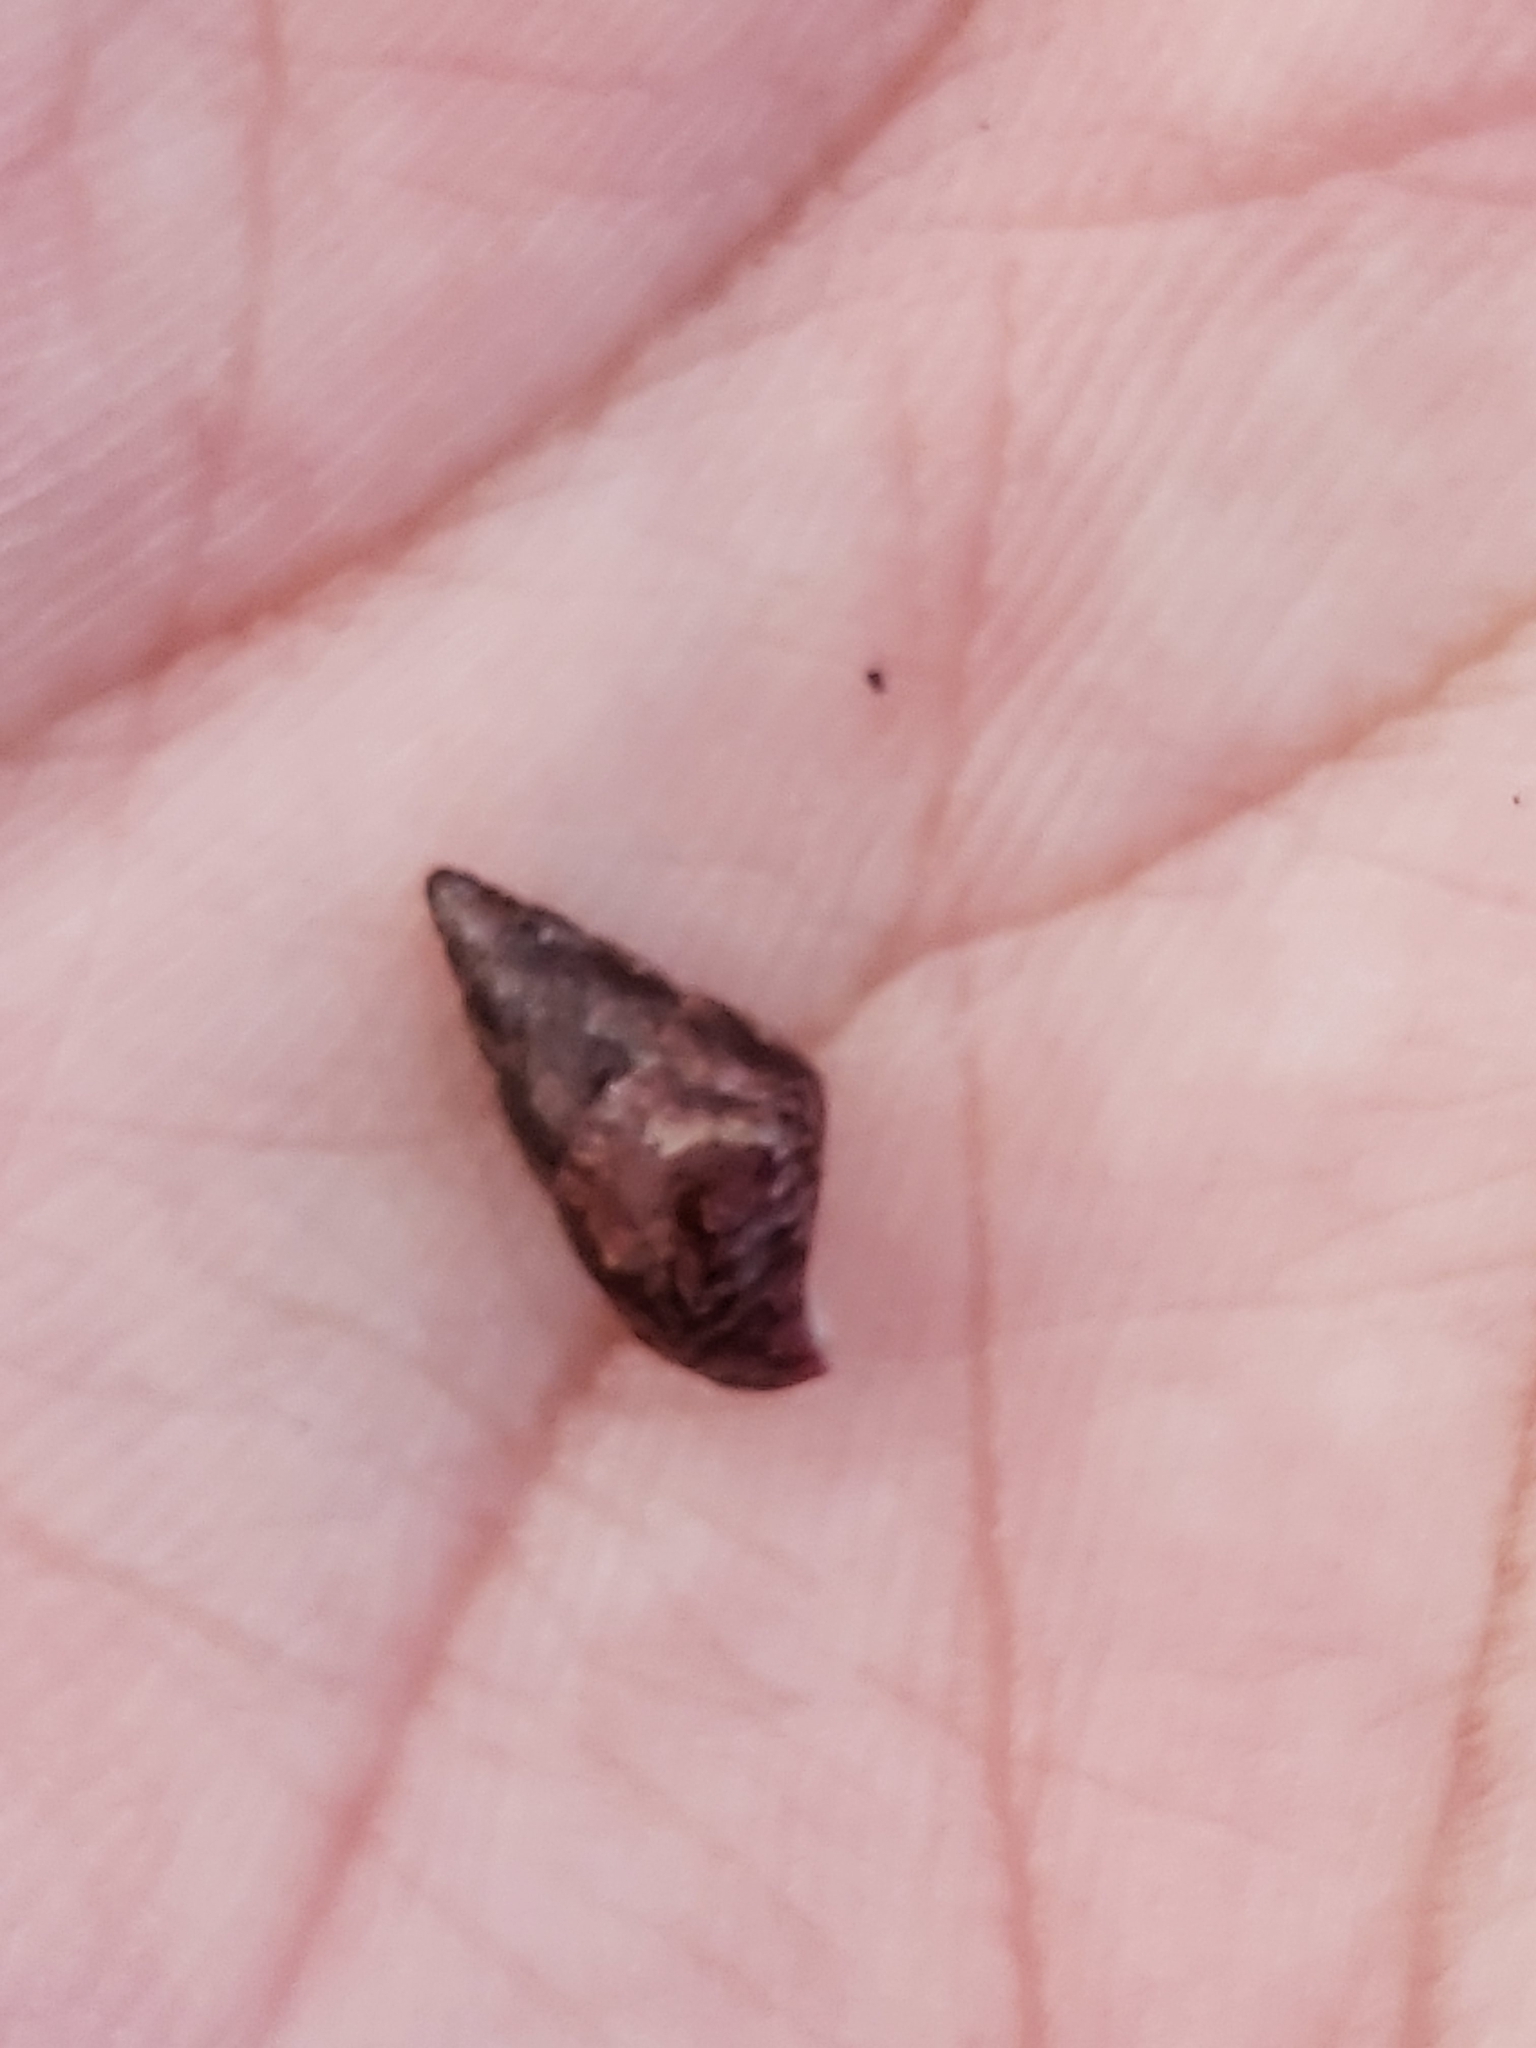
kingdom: Animalia
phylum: Mollusca
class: Gastropoda
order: Trochida
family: Trochidae
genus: Phasianotrochus
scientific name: Phasianotrochus eximius
